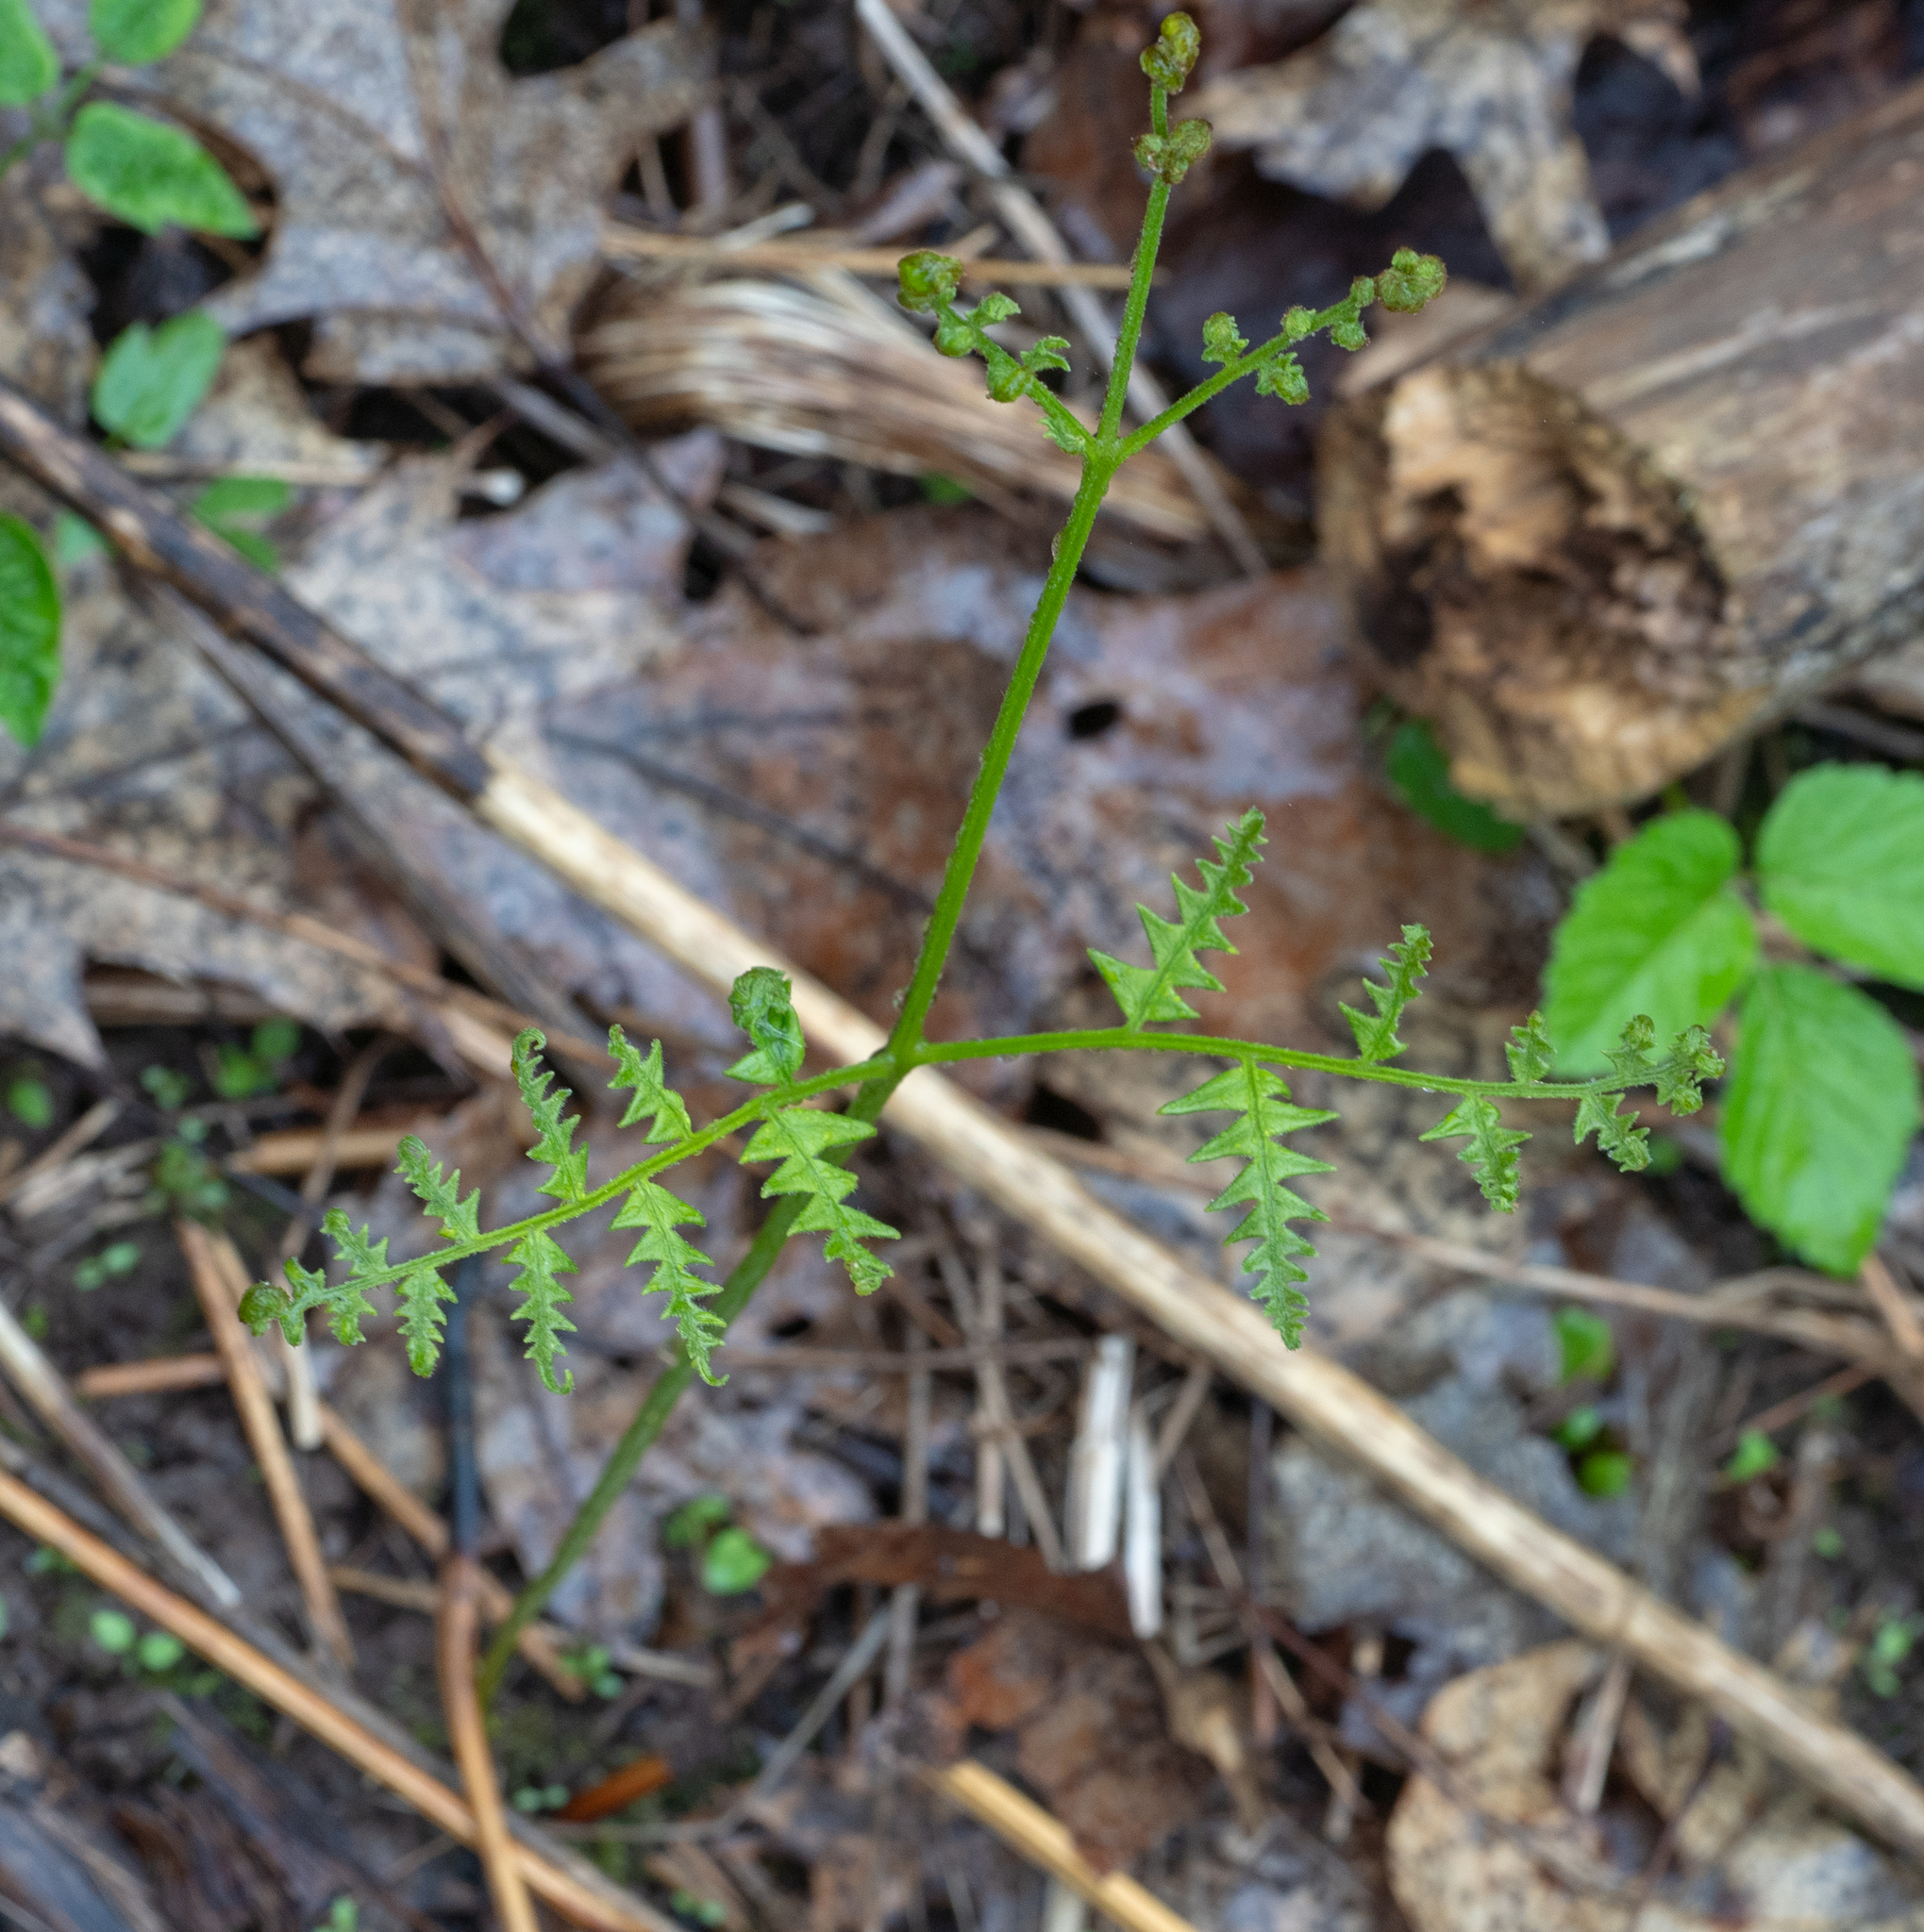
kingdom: Plantae
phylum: Tracheophyta
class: Polypodiopsida
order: Polypodiales
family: Dennstaedtiaceae
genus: Pteridium
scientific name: Pteridium aquilinum
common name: Bracken
